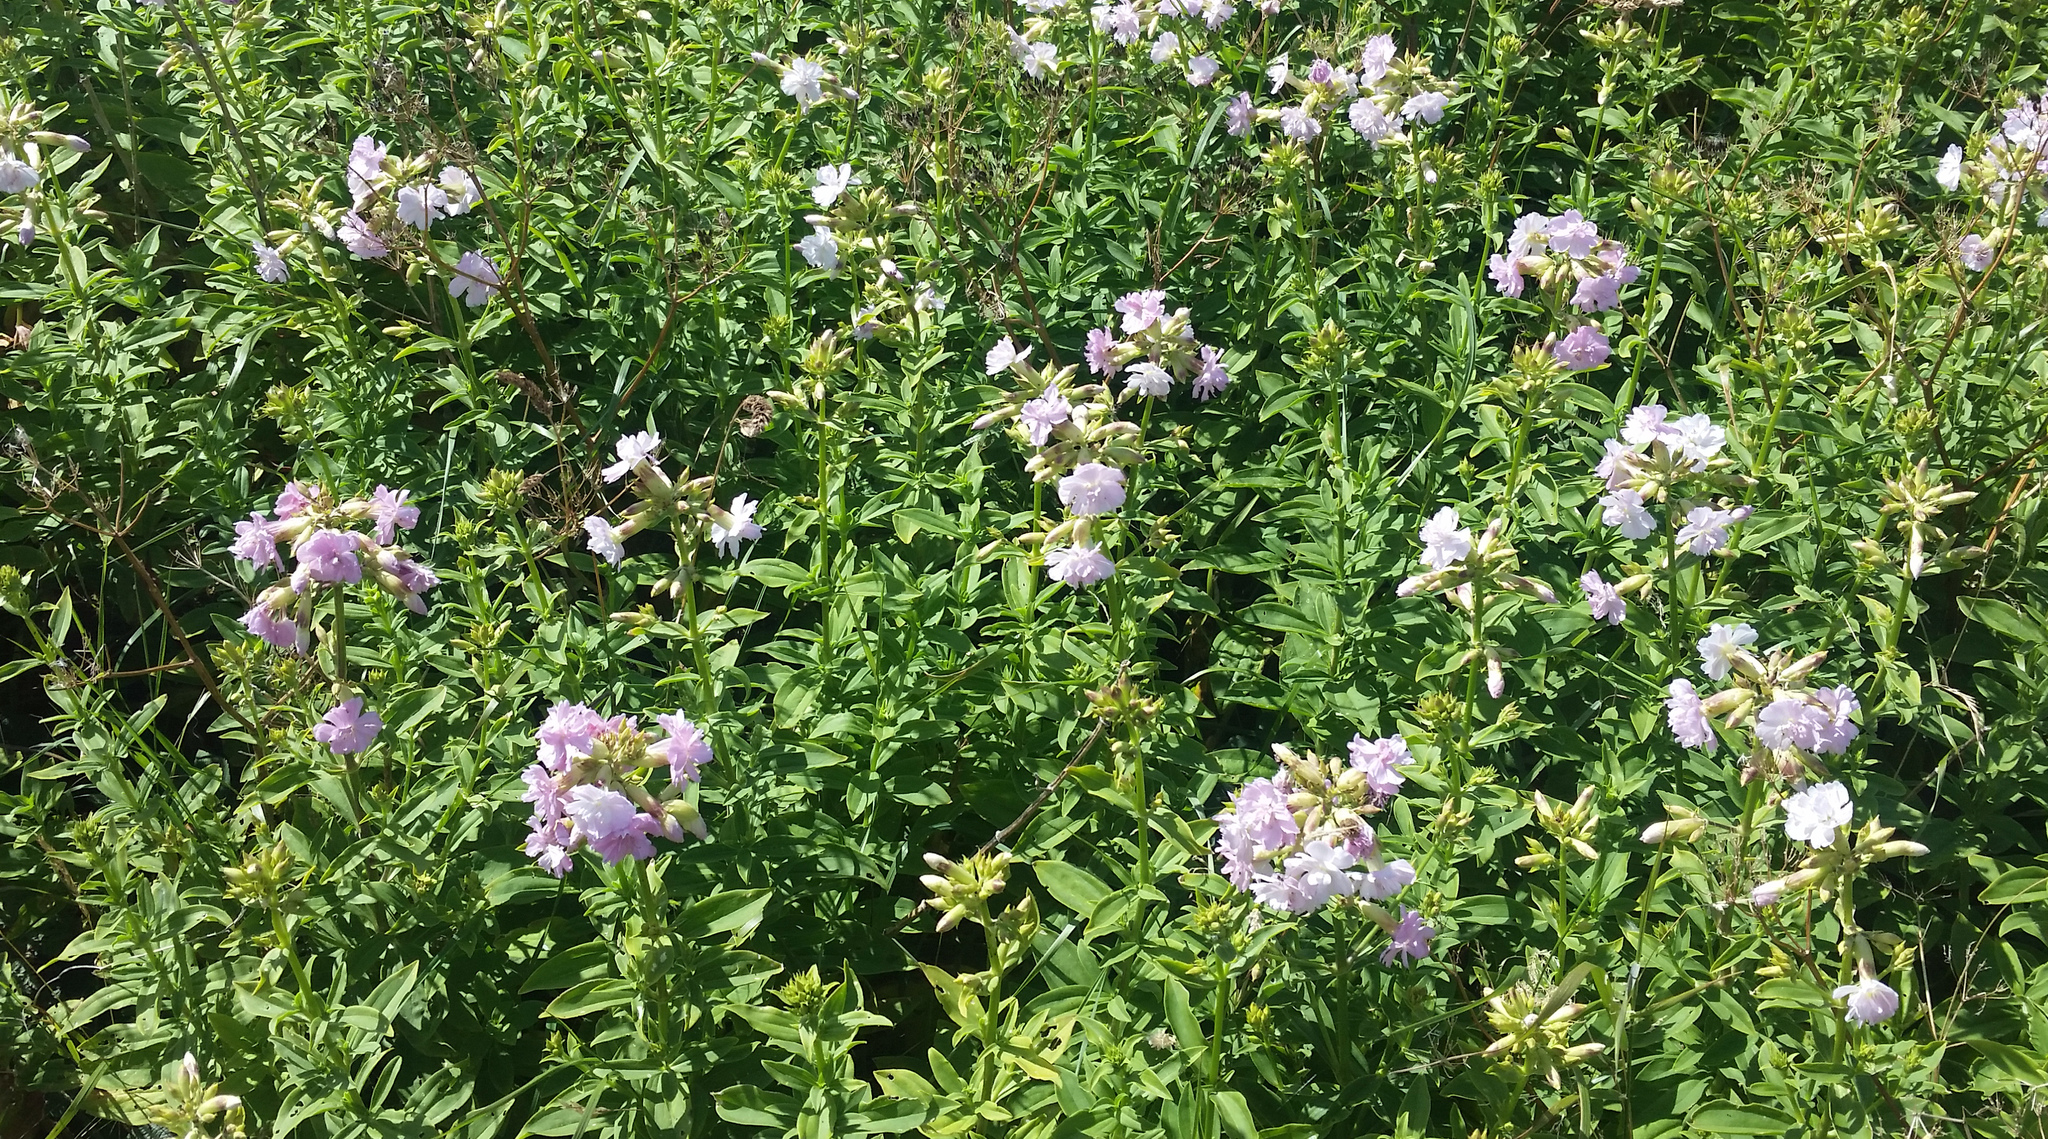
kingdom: Plantae
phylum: Tracheophyta
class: Magnoliopsida
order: Caryophyllales
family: Caryophyllaceae
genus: Saponaria
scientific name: Saponaria officinalis
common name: Soapwort
